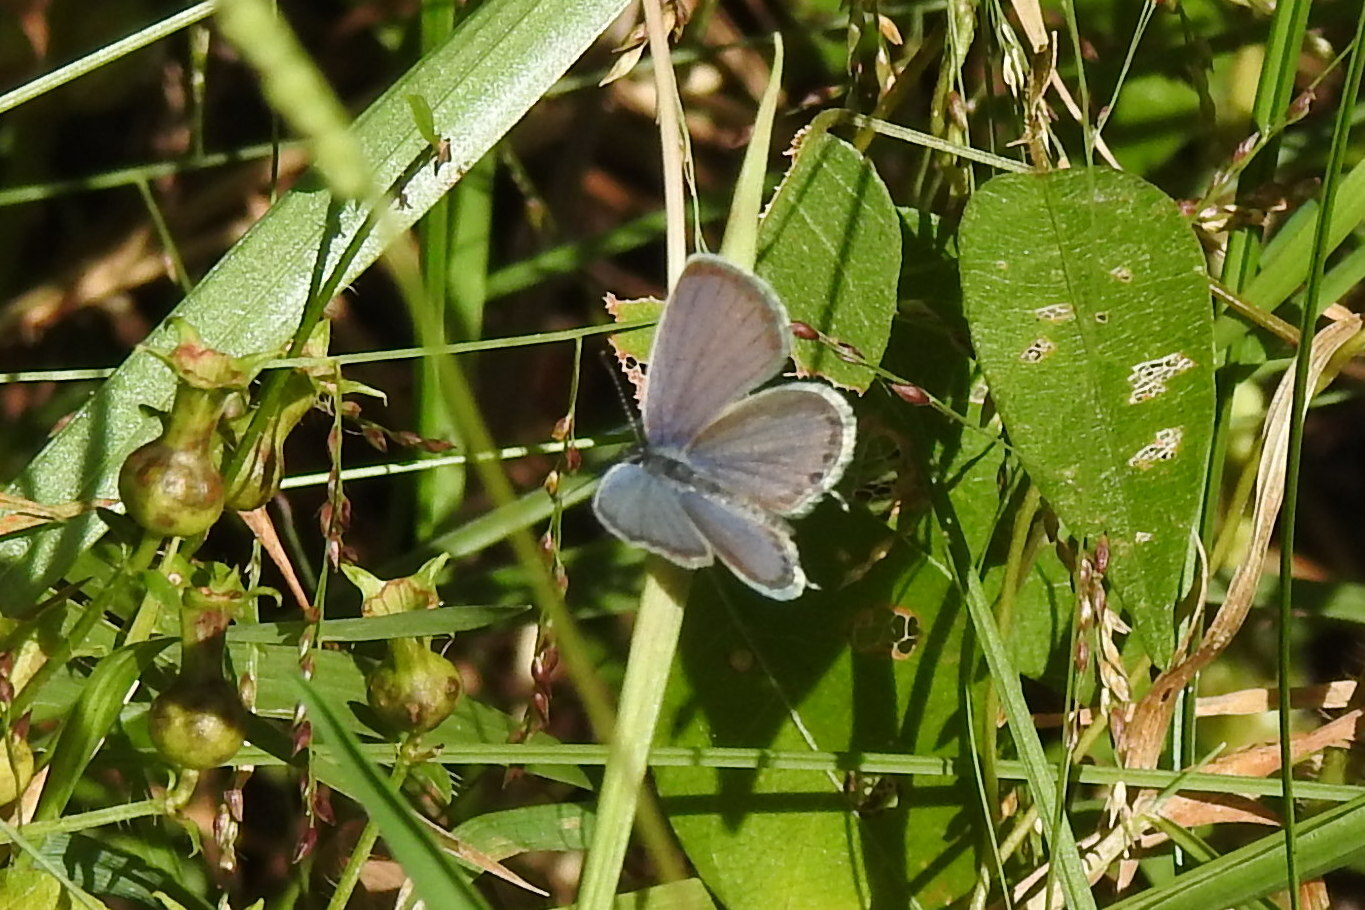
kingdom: Animalia
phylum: Arthropoda
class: Insecta
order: Lepidoptera
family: Lycaenidae
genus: Elkalyce
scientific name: Elkalyce comyntas
